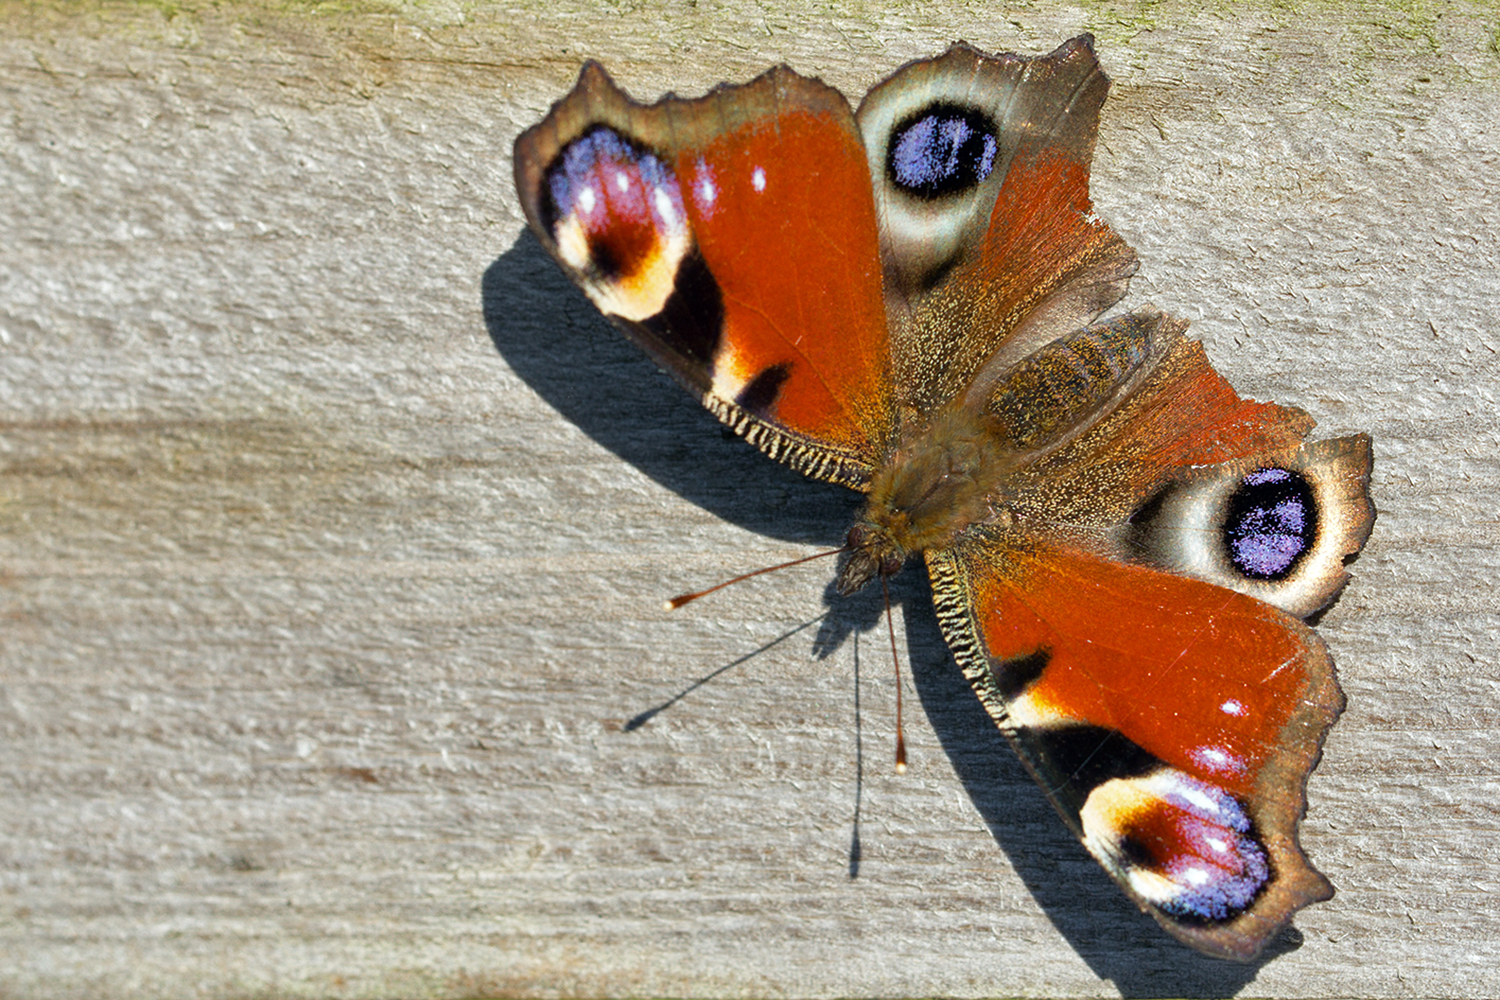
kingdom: Animalia
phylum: Arthropoda
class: Insecta
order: Lepidoptera
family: Nymphalidae
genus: Aglais
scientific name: Aglais io
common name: Peacock
